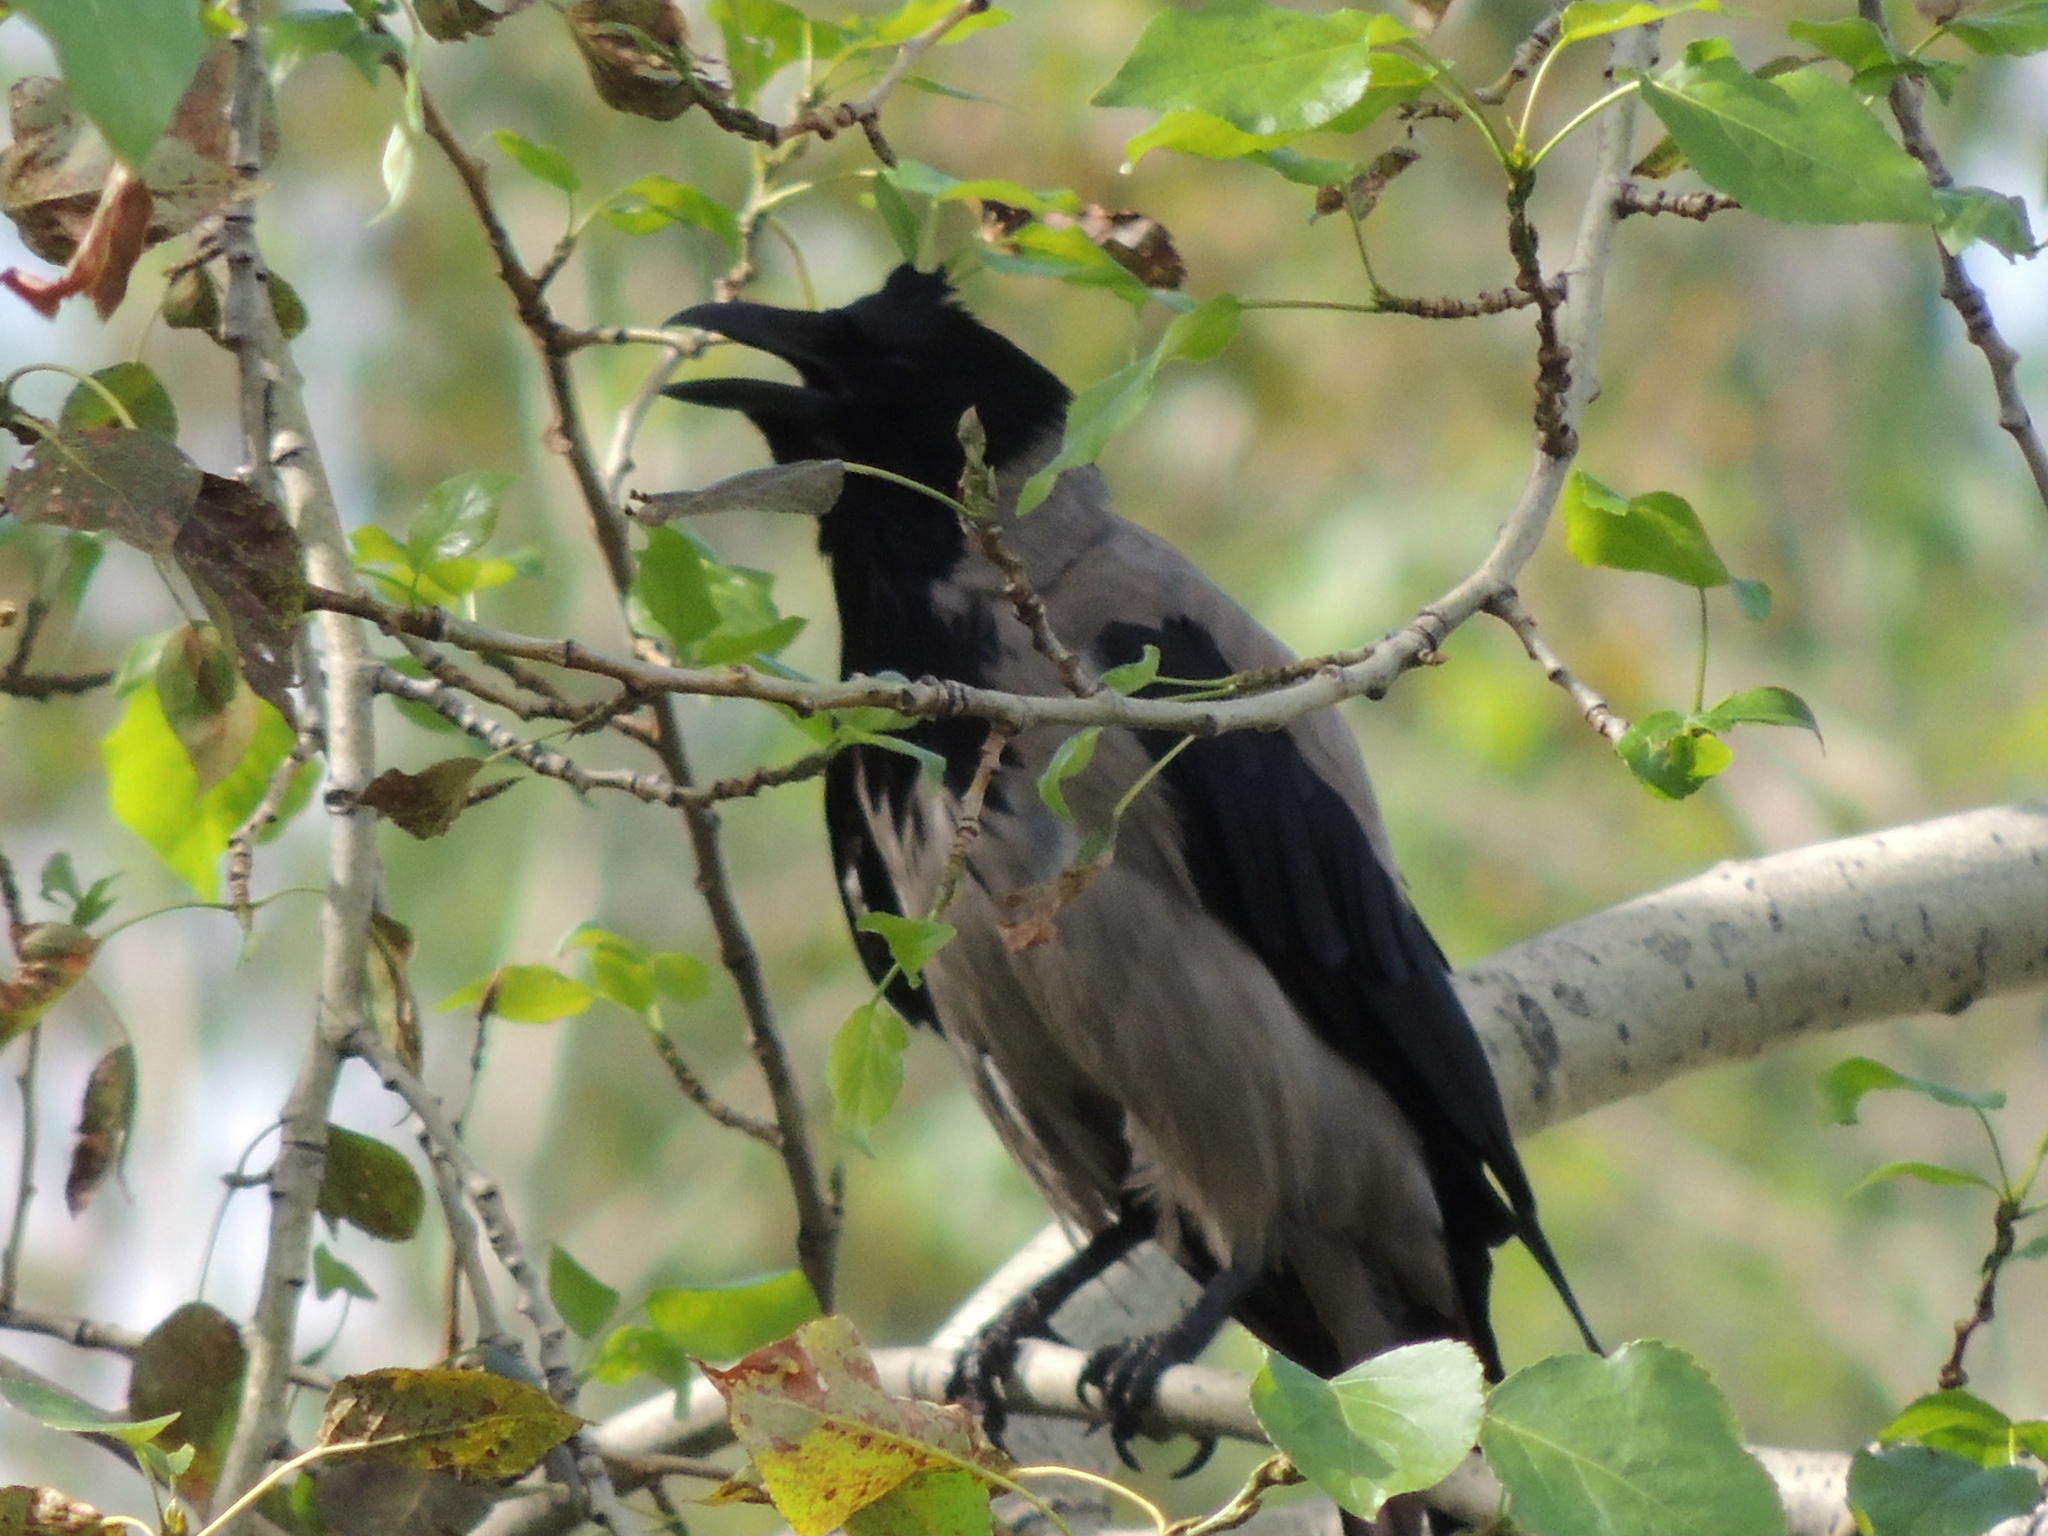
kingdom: Animalia
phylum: Chordata
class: Aves
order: Passeriformes
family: Corvidae
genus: Corvus
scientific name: Corvus cornix
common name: Hooded crow
